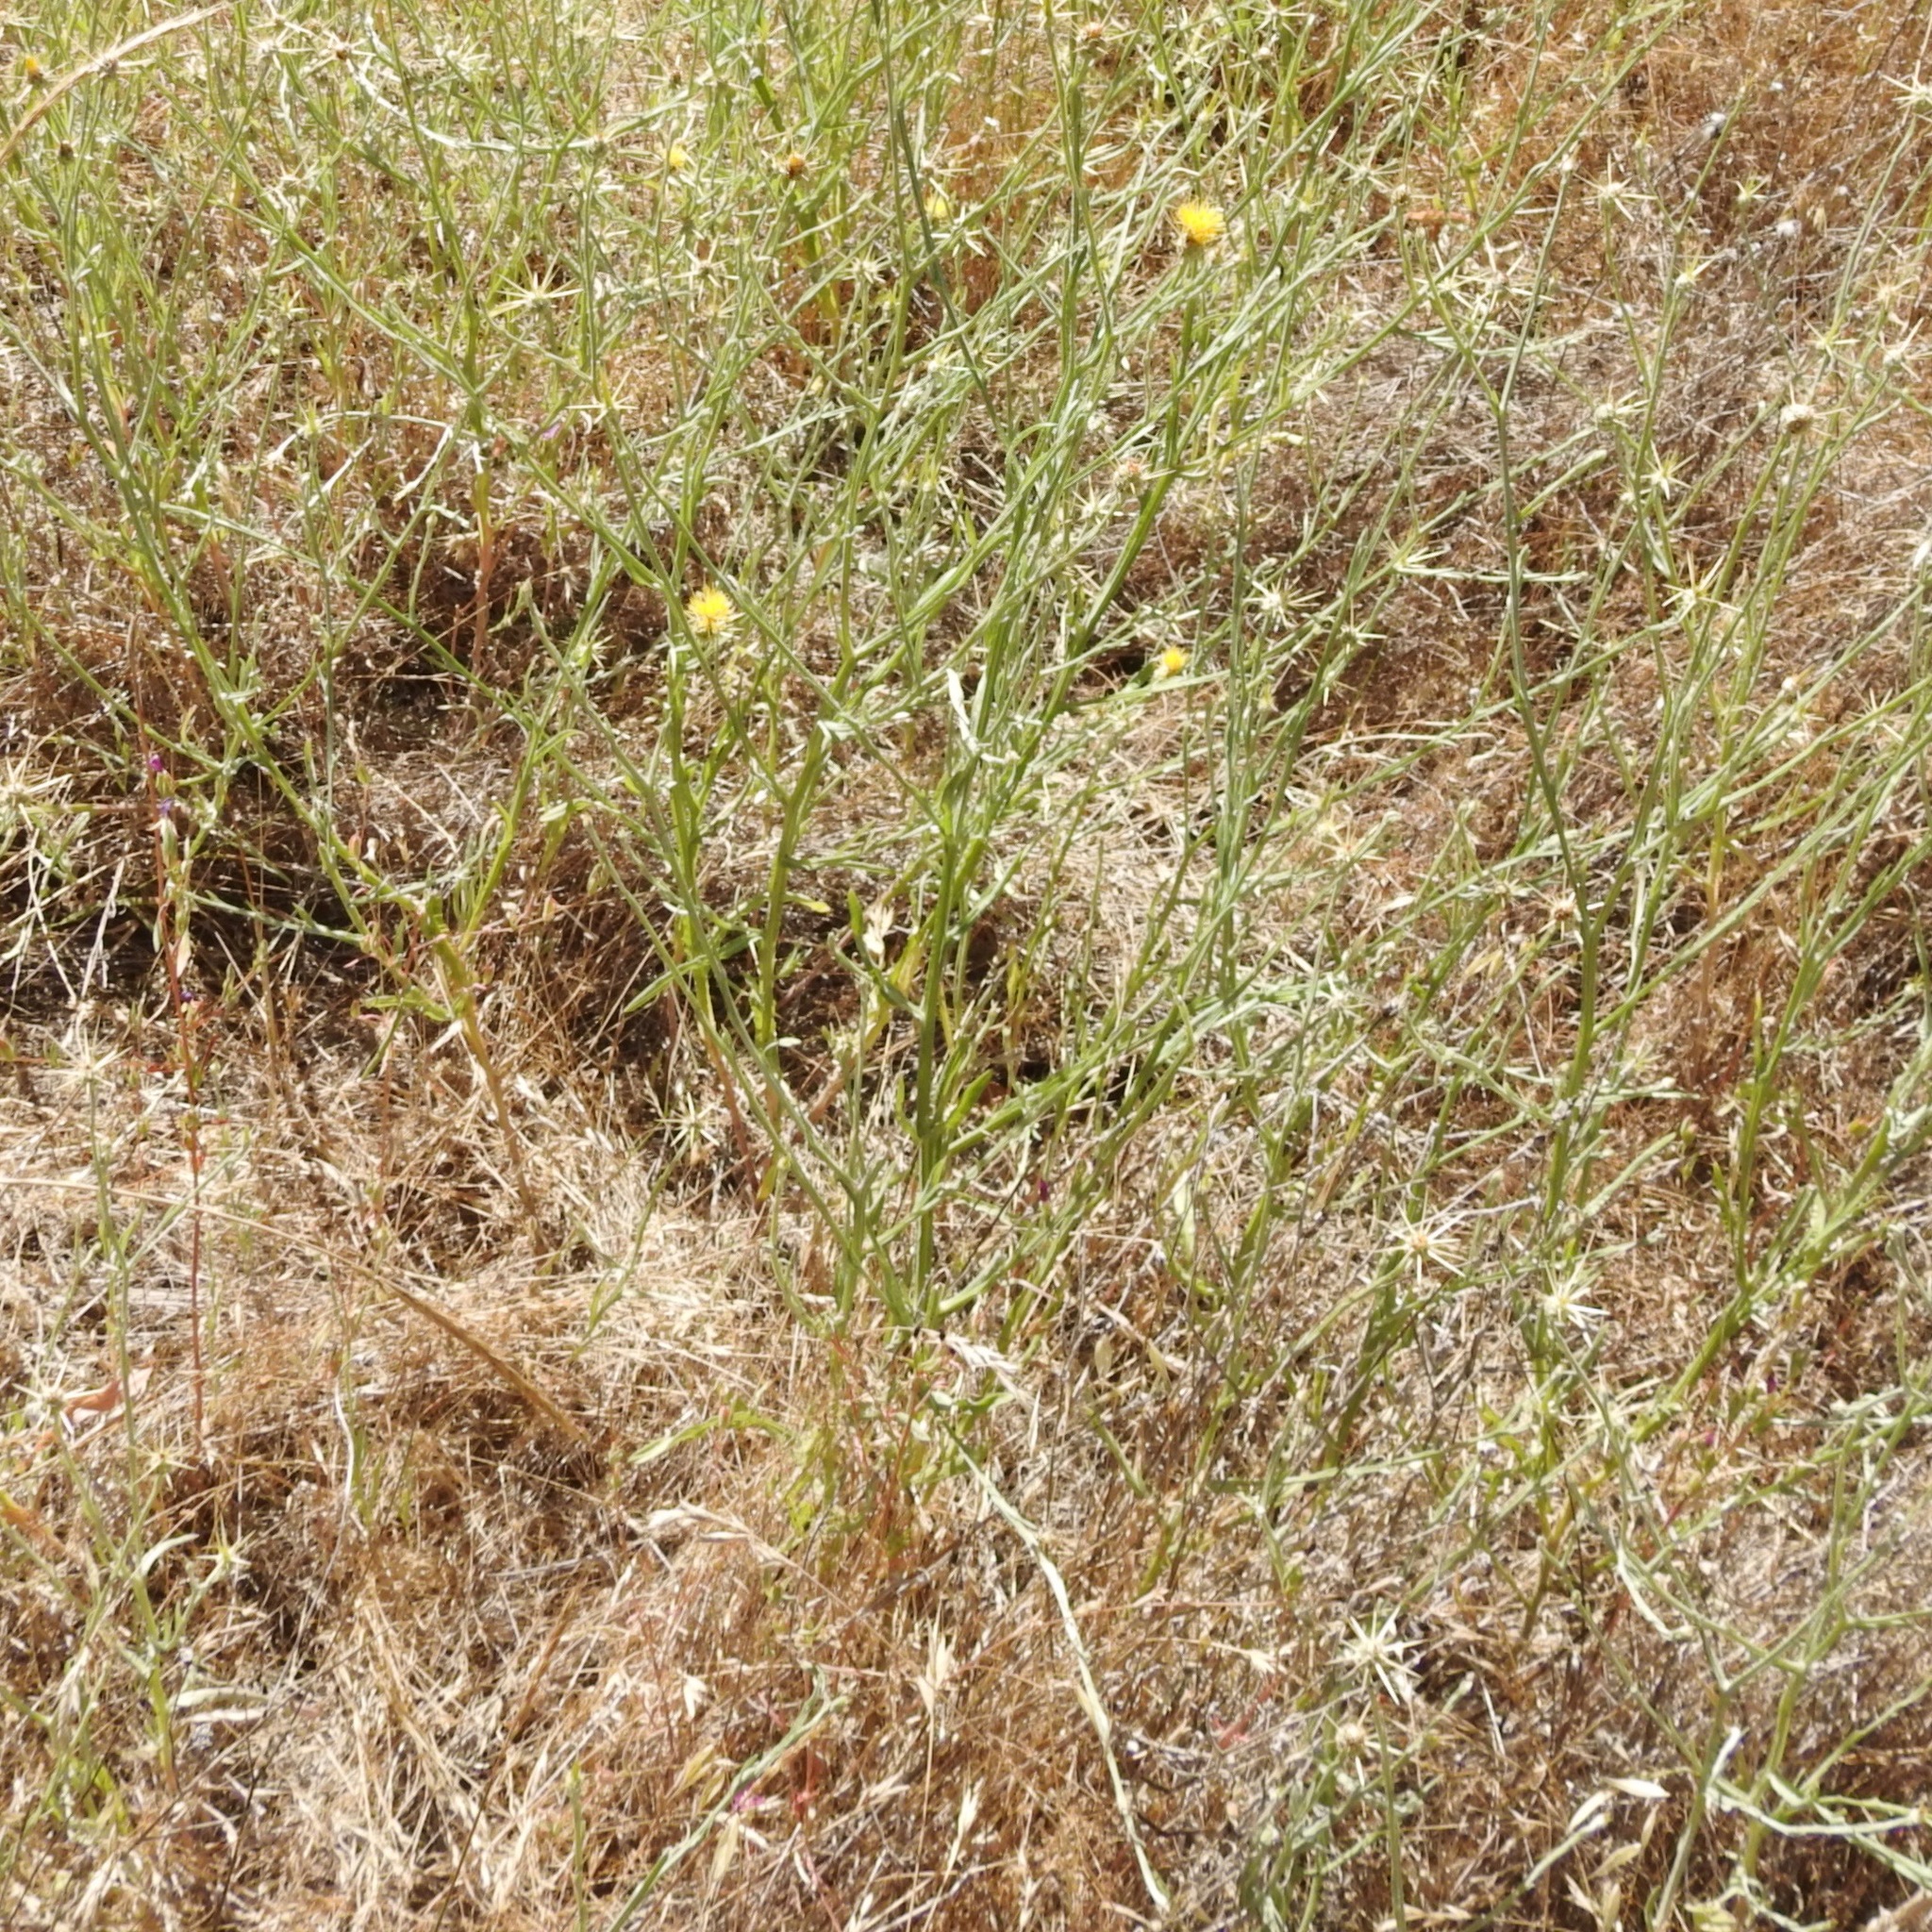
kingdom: Plantae
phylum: Tracheophyta
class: Magnoliopsida
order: Asterales
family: Asteraceae
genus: Centaurea
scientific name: Centaurea solstitialis
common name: Yellow star-thistle
